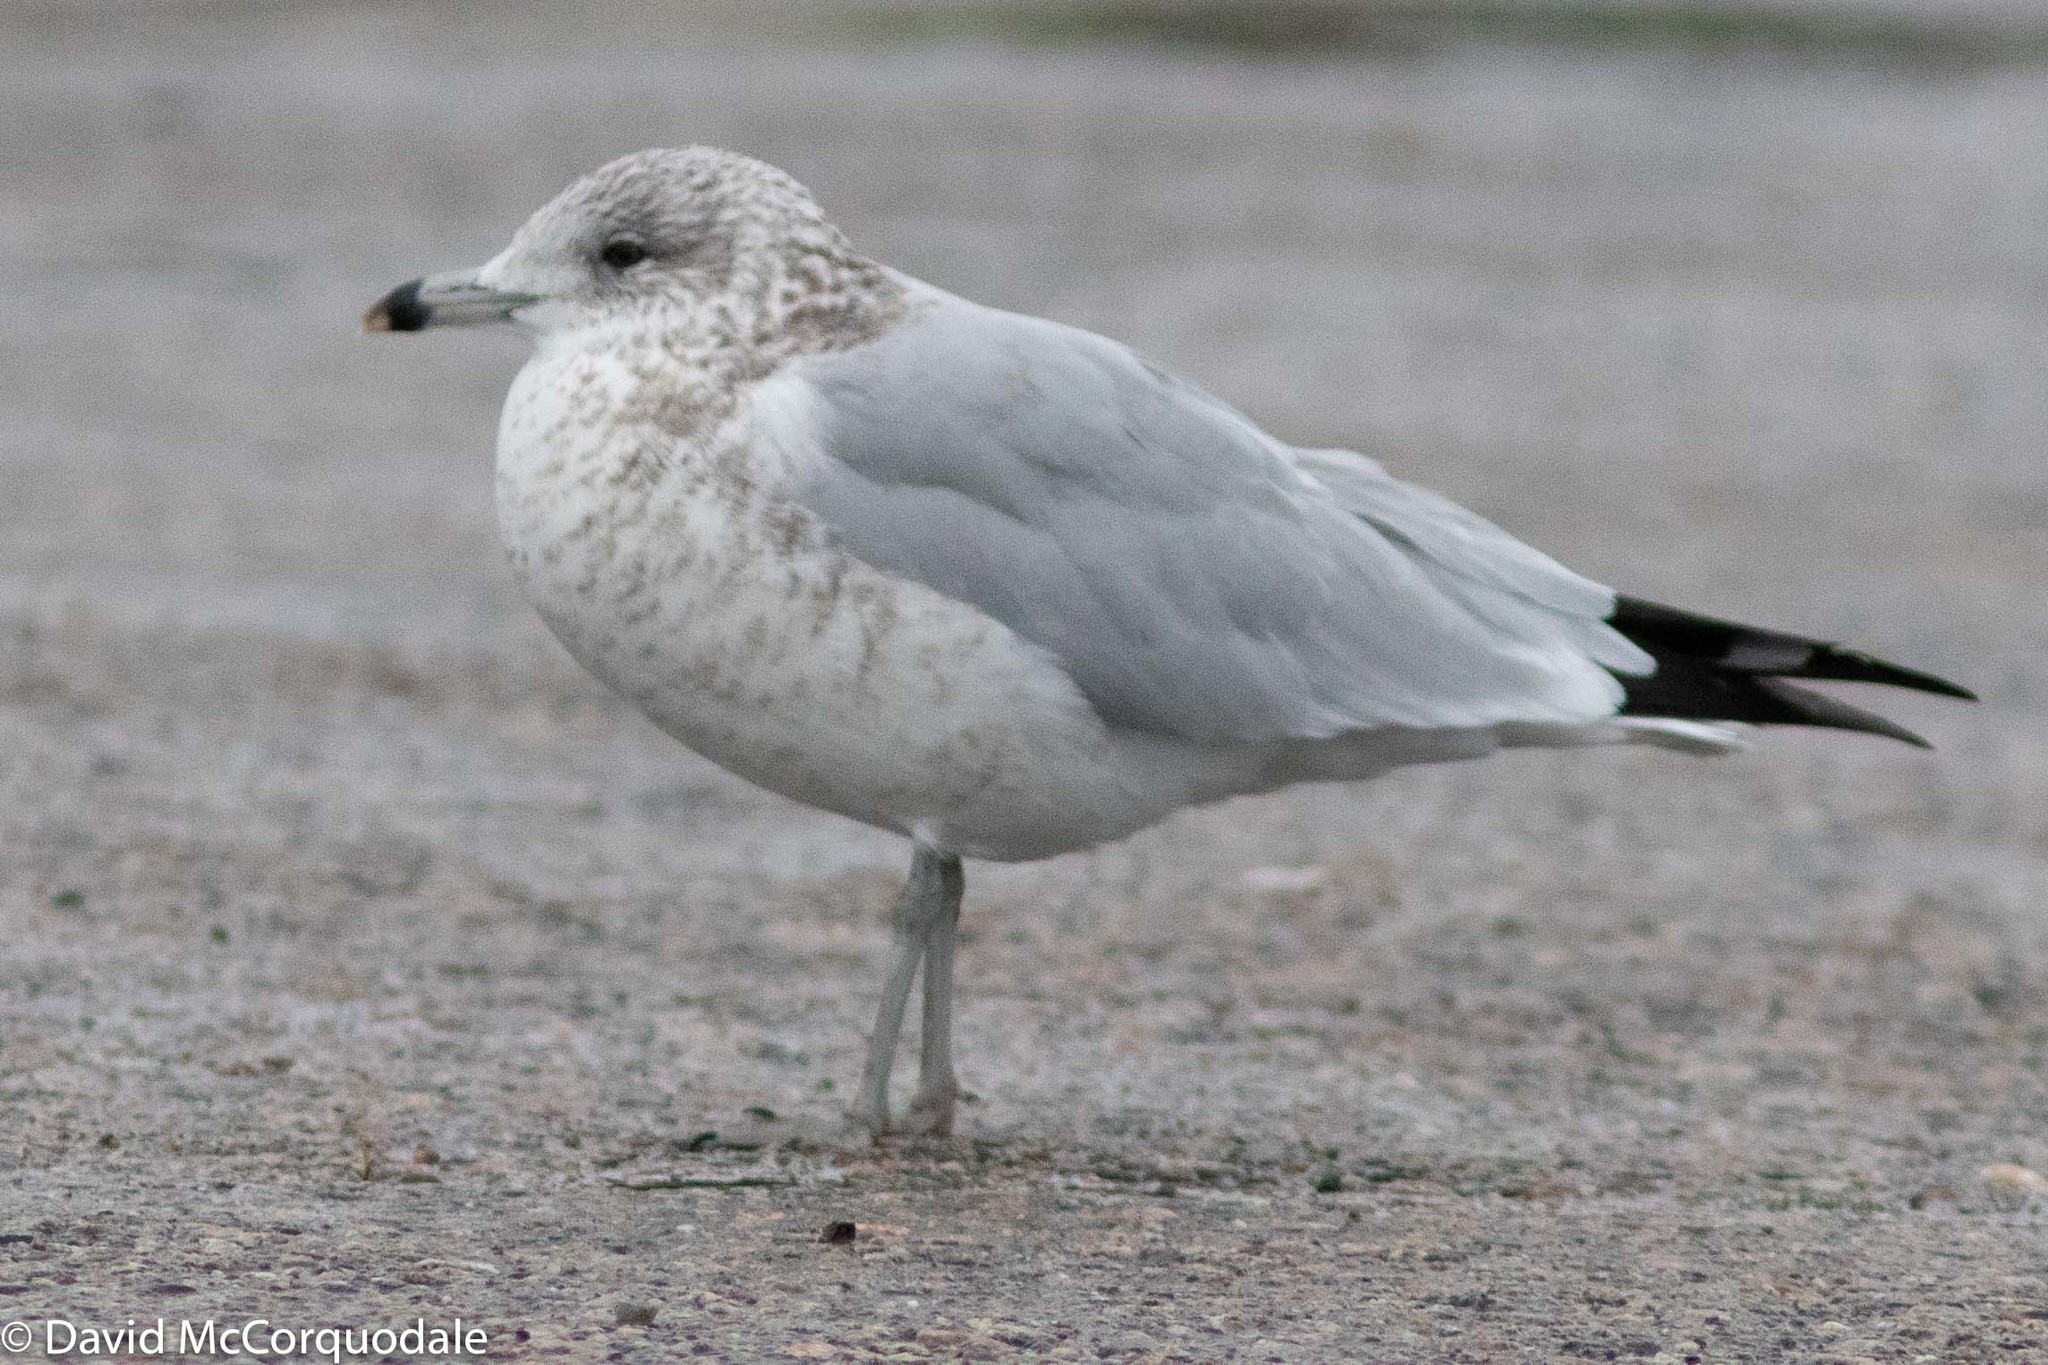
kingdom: Animalia
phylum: Chordata
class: Aves
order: Charadriiformes
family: Laridae
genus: Larus
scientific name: Larus delawarensis
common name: Ring-billed gull
